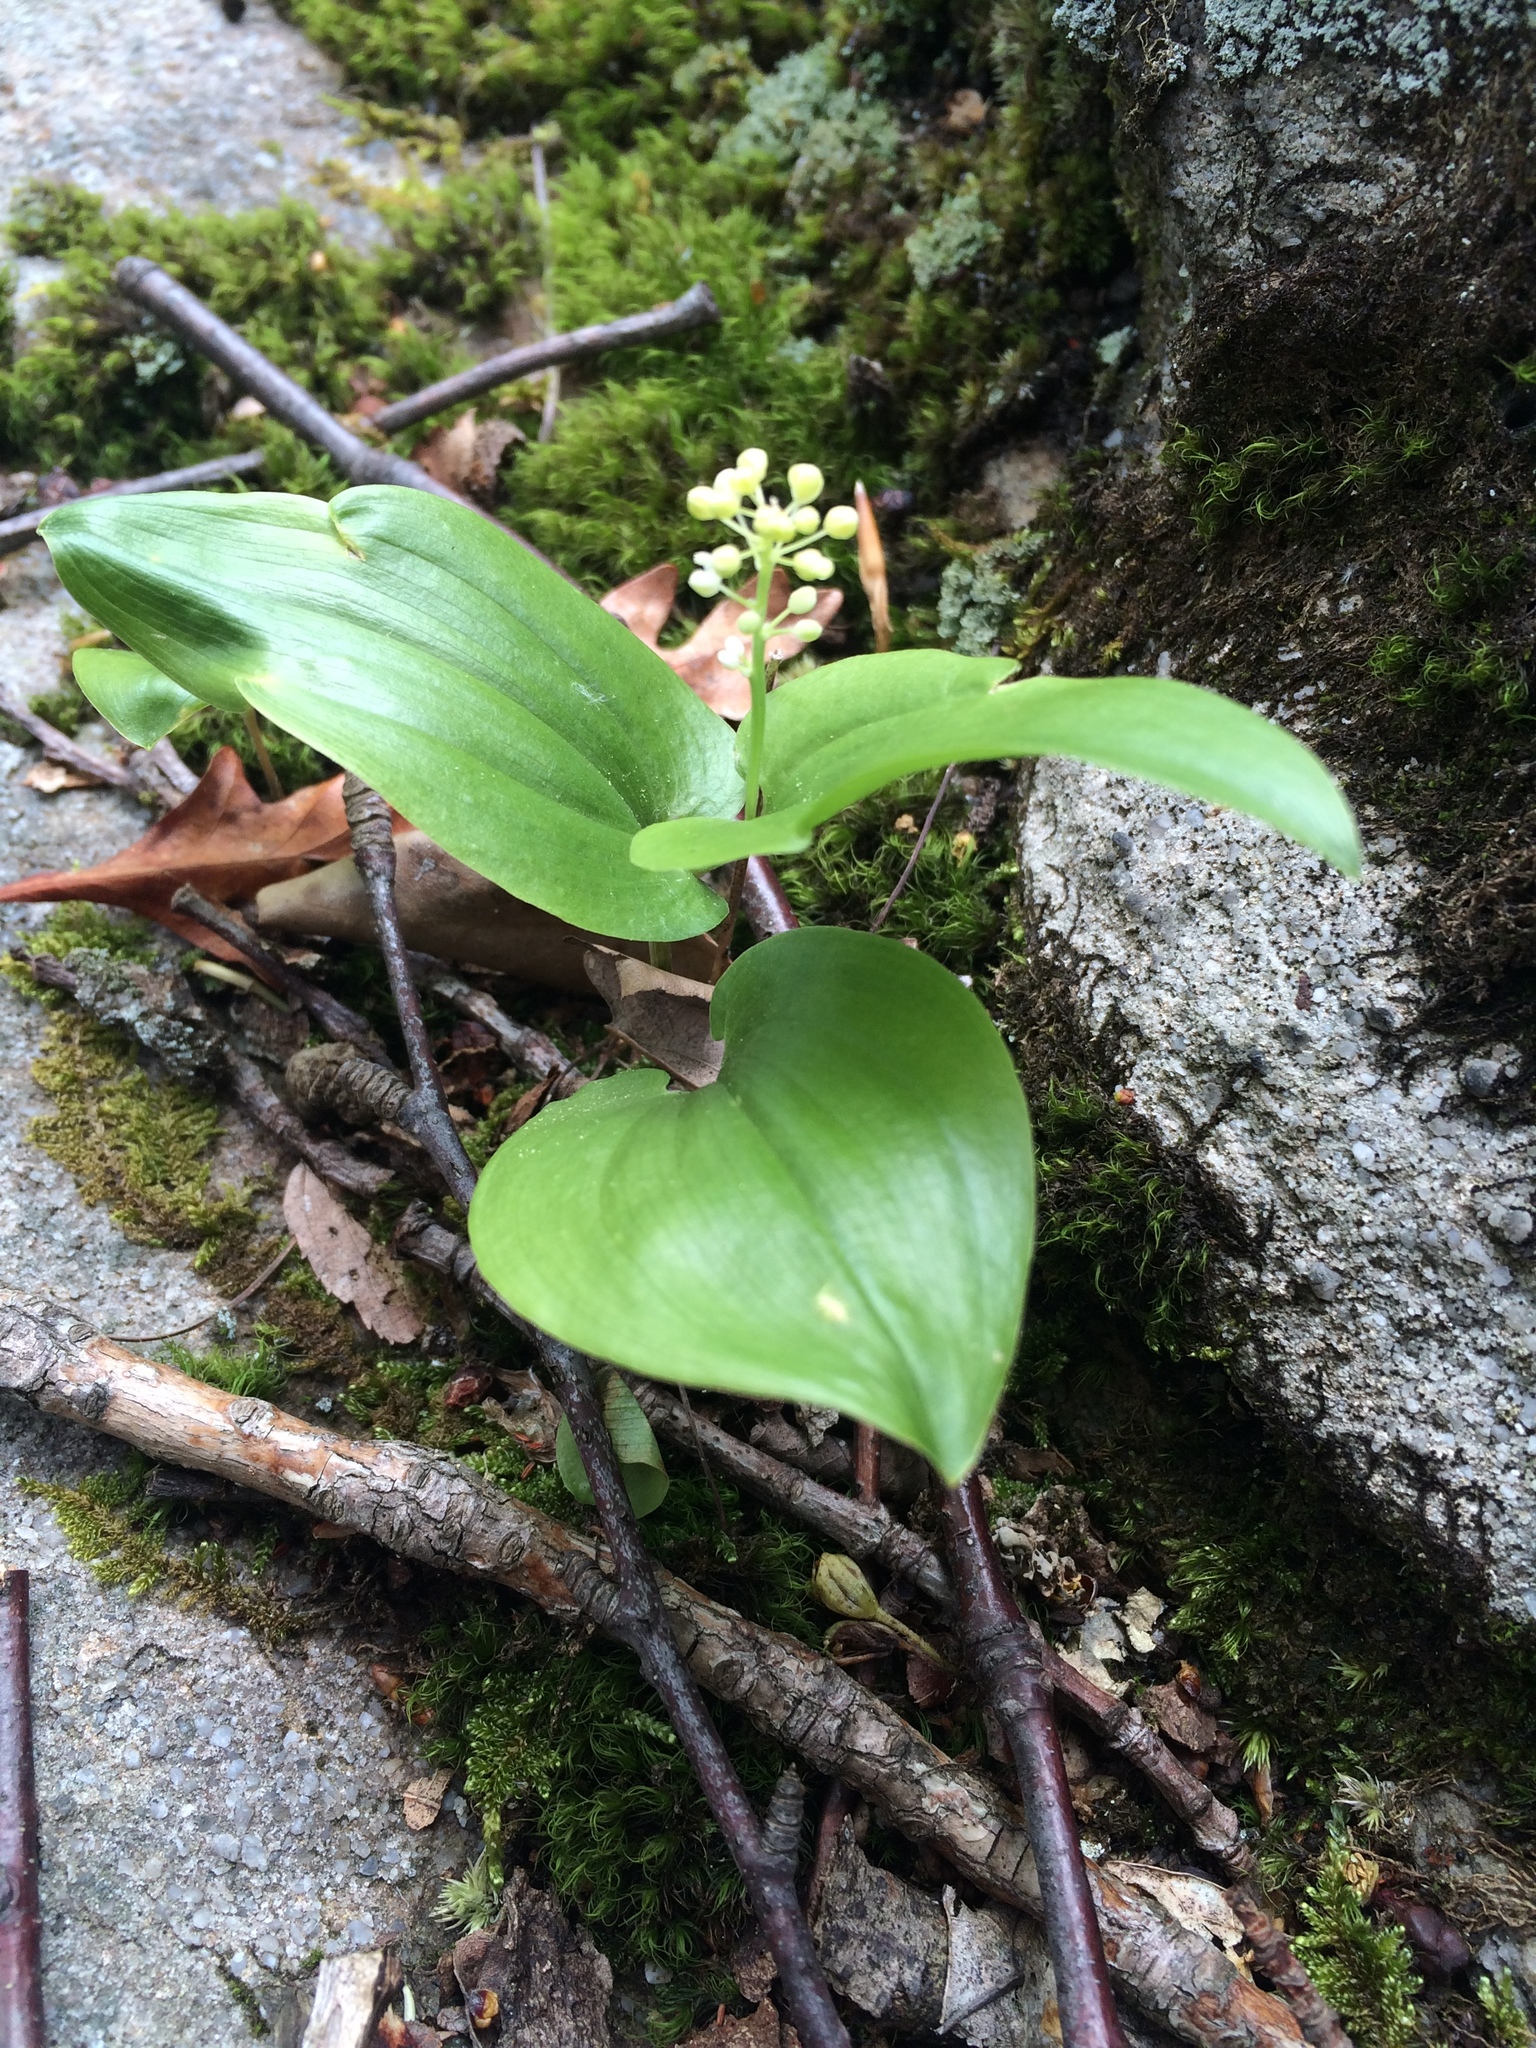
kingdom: Plantae
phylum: Tracheophyta
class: Liliopsida
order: Asparagales
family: Asparagaceae
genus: Maianthemum
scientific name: Maianthemum canadense
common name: False lily-of-the-valley
